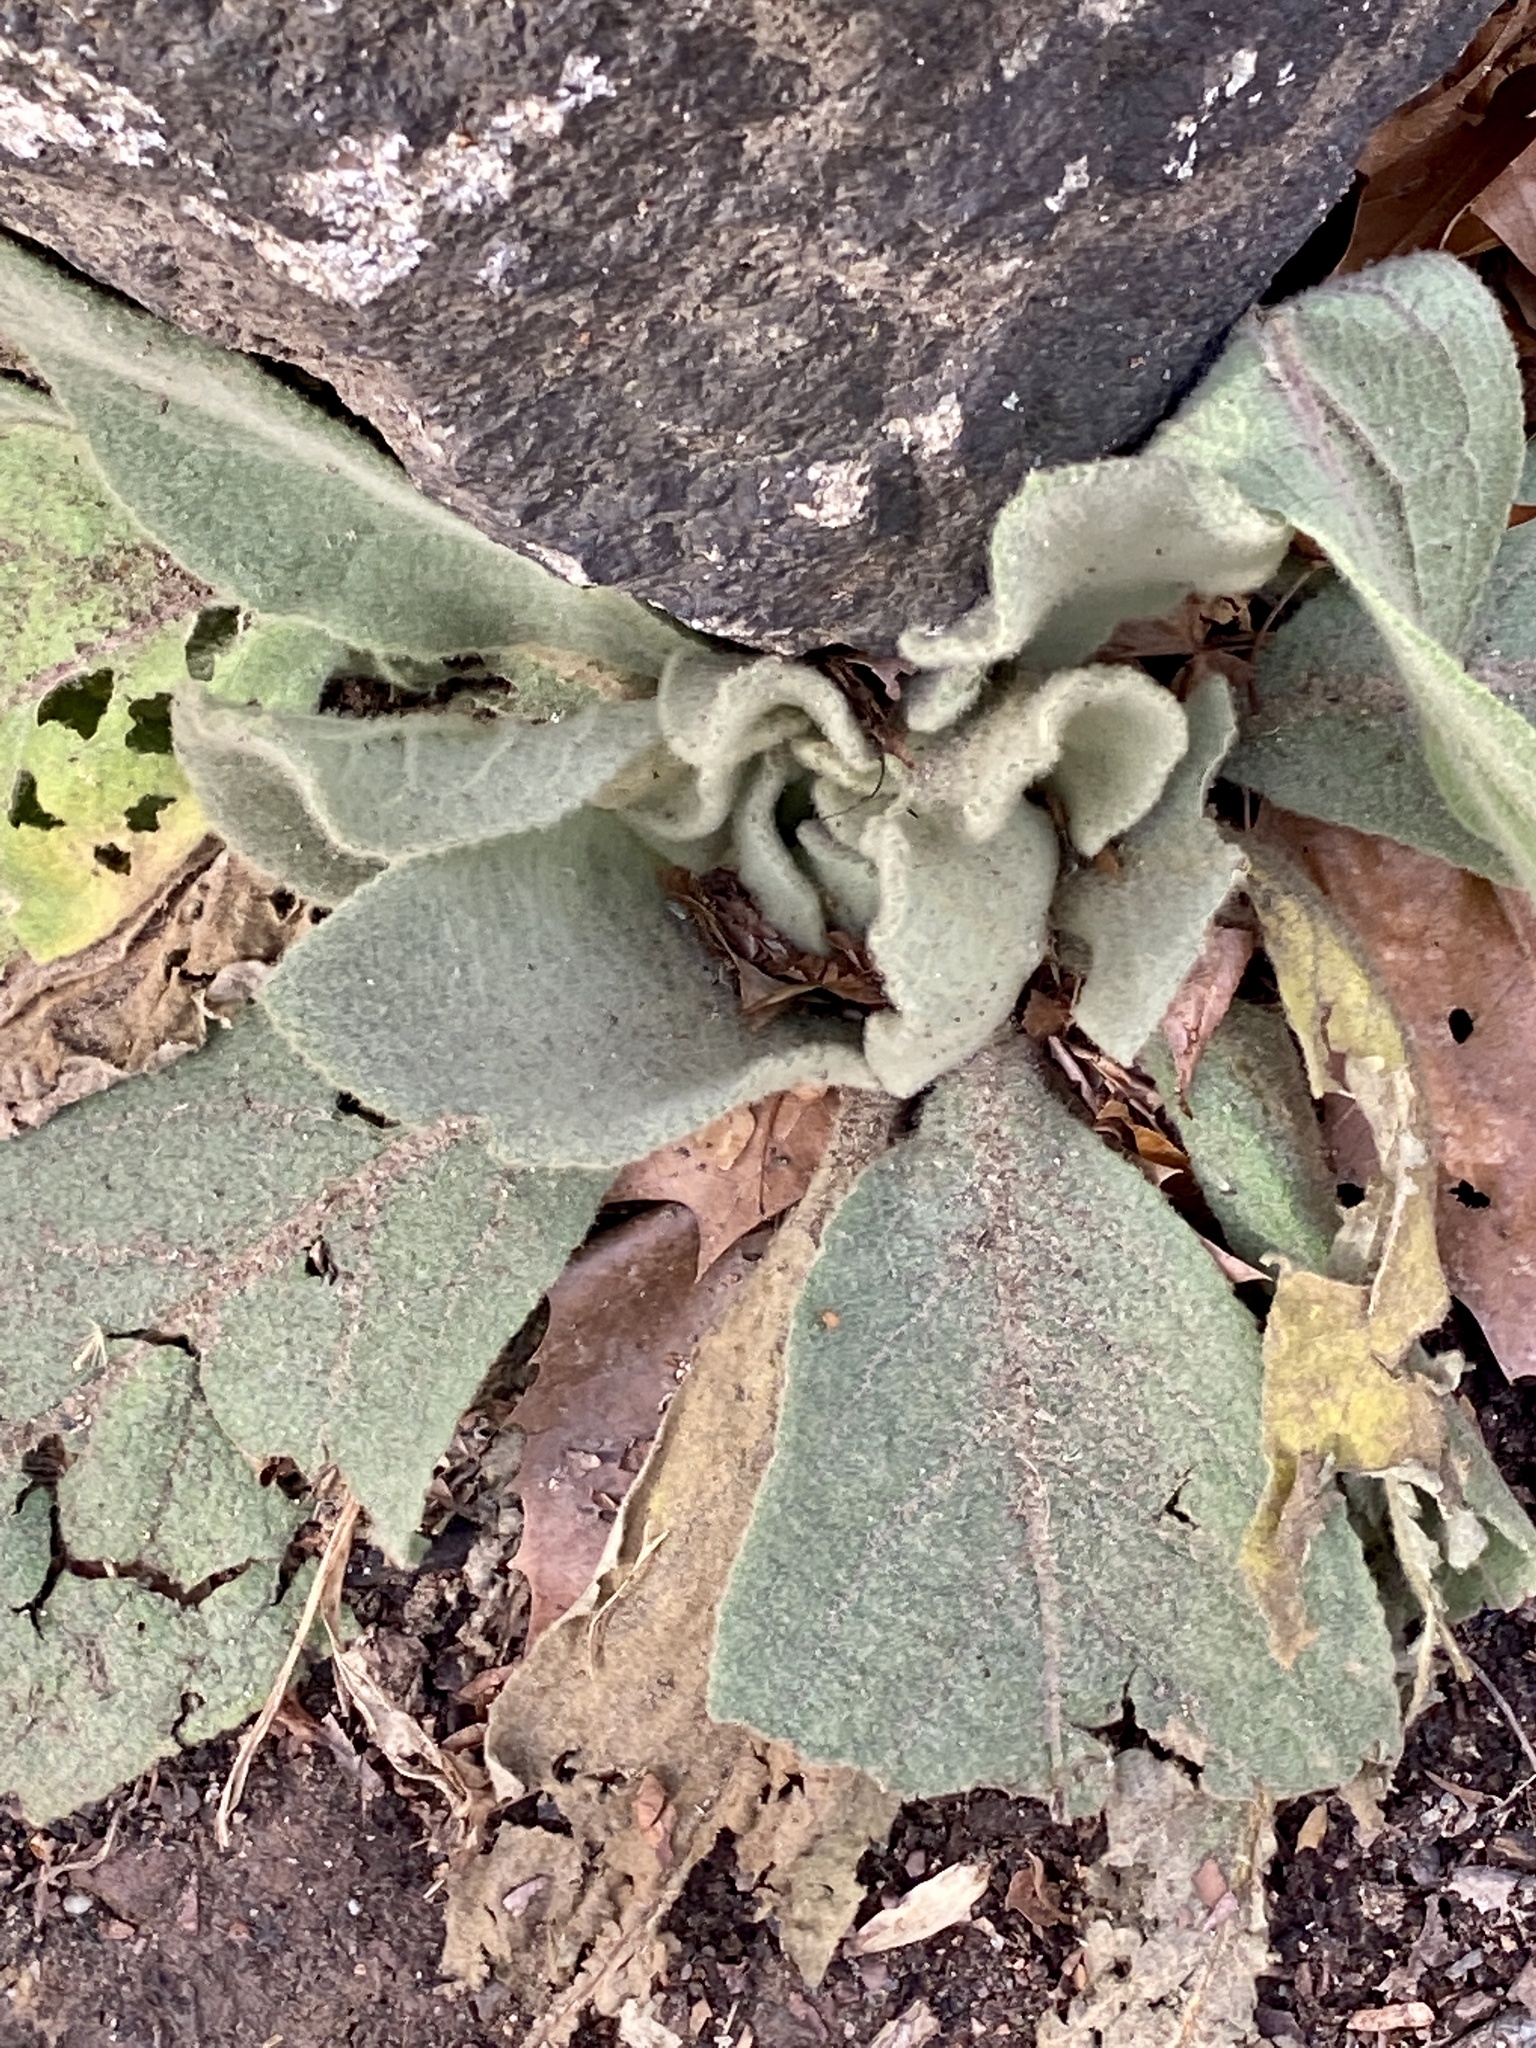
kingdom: Plantae
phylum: Tracheophyta
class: Magnoliopsida
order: Lamiales
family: Scrophulariaceae
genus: Verbascum
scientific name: Verbascum thapsus
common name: Common mullein
